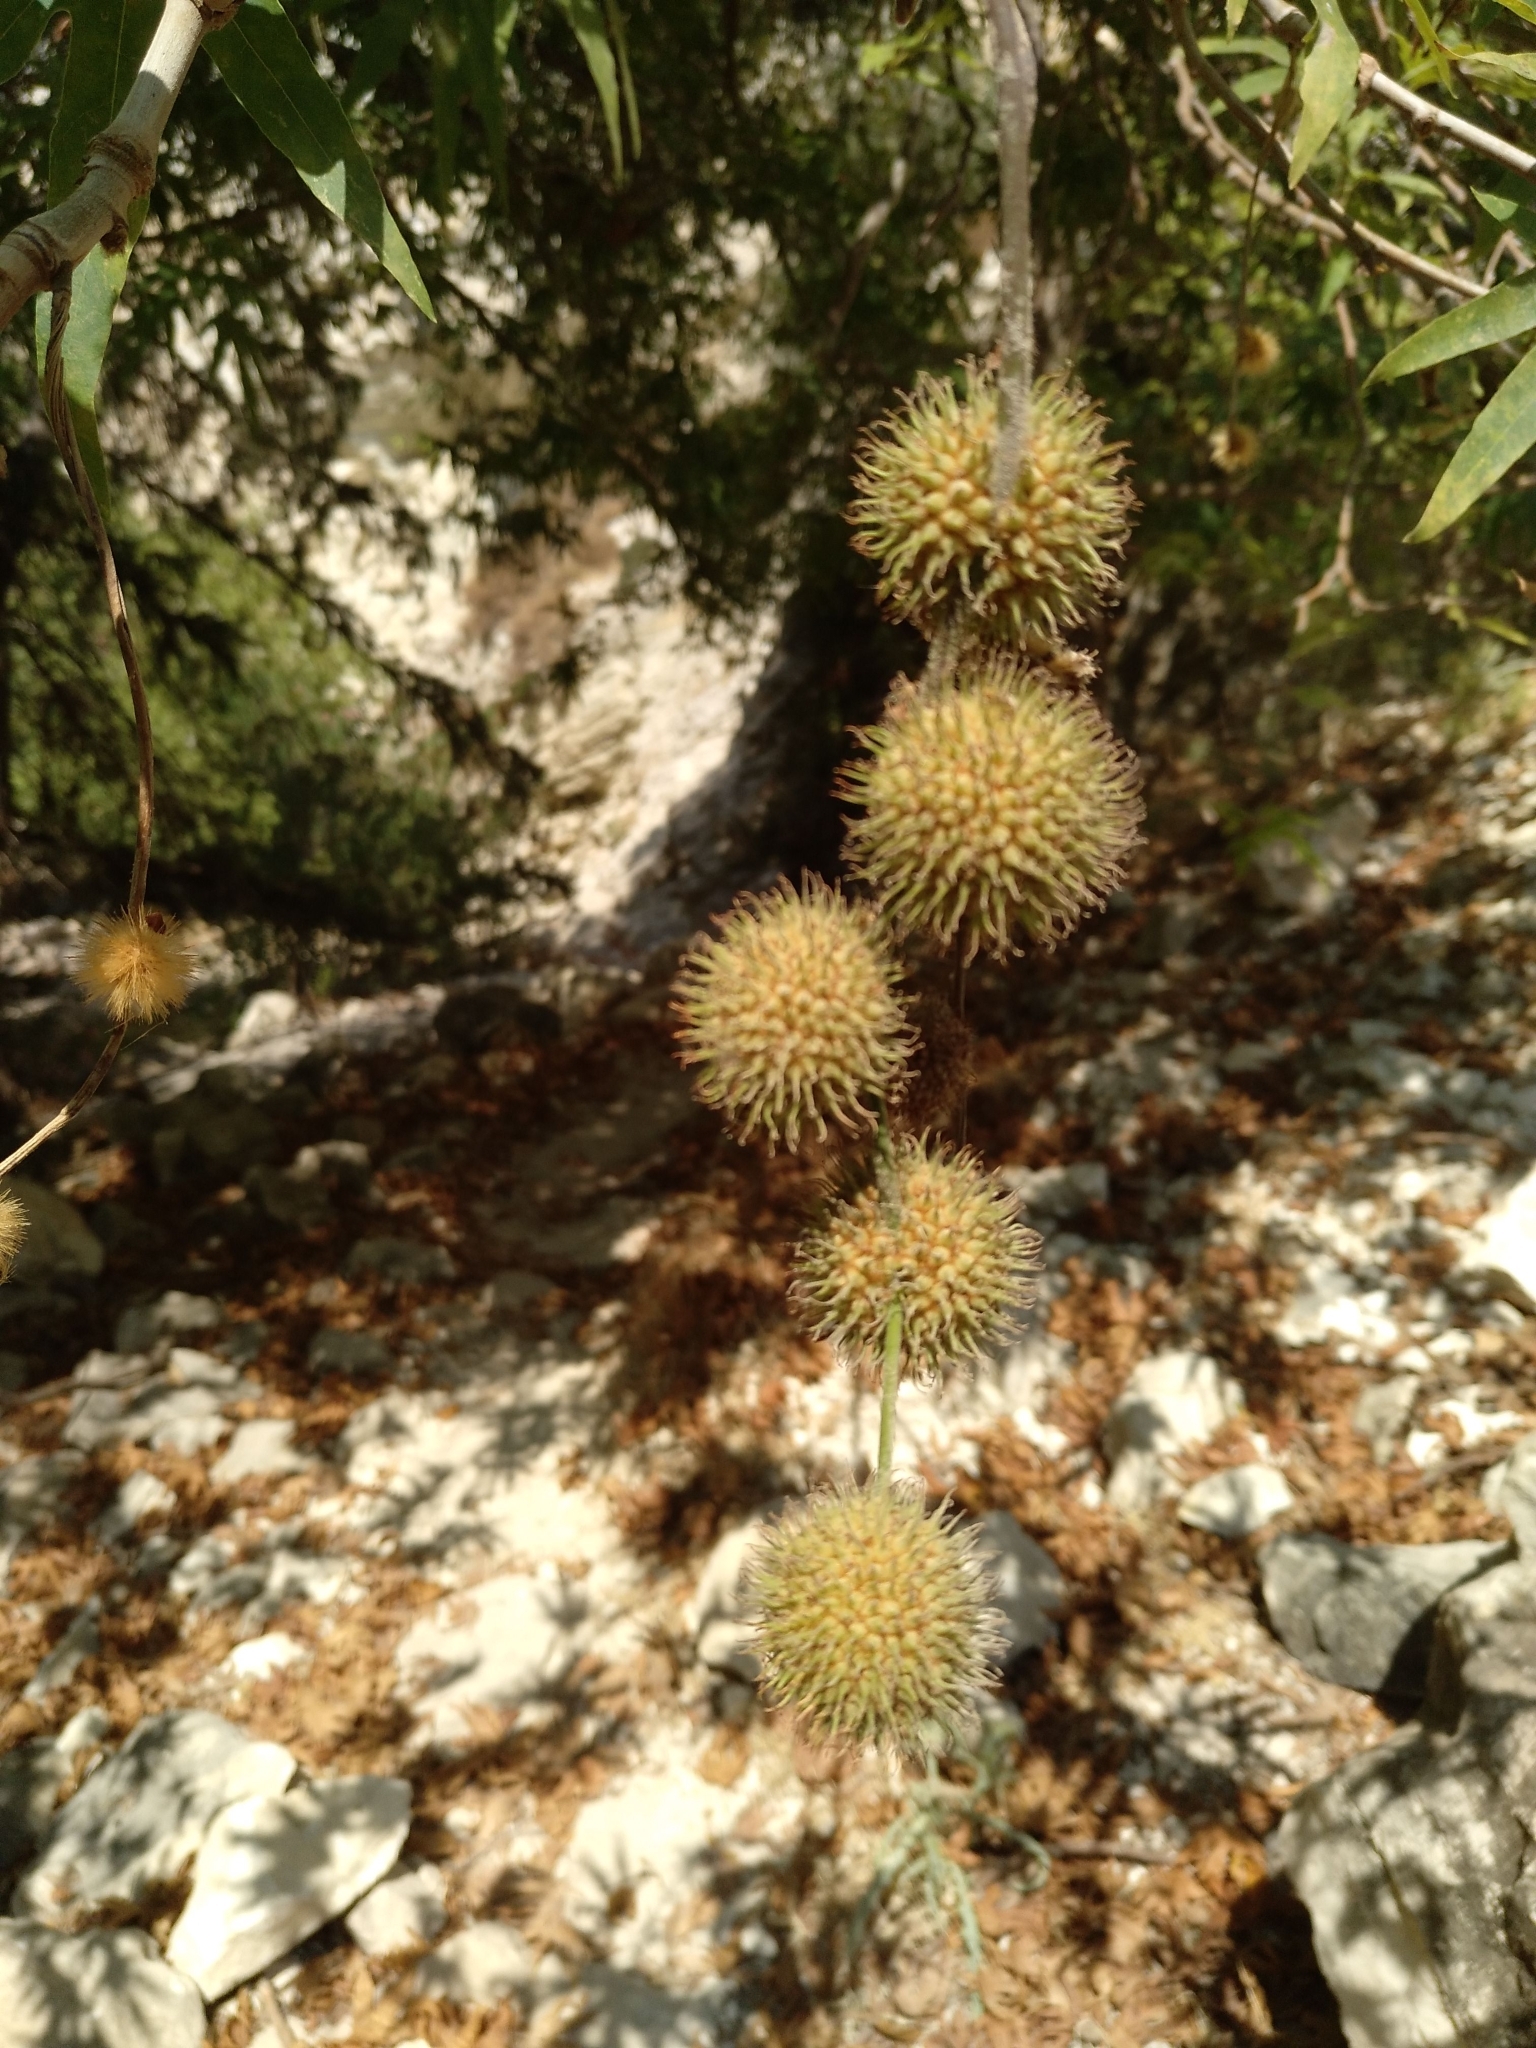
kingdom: Plantae
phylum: Tracheophyta
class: Magnoliopsida
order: Proteales
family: Platanaceae
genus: Platanus
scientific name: Platanus orientalis
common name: Oriental plane
